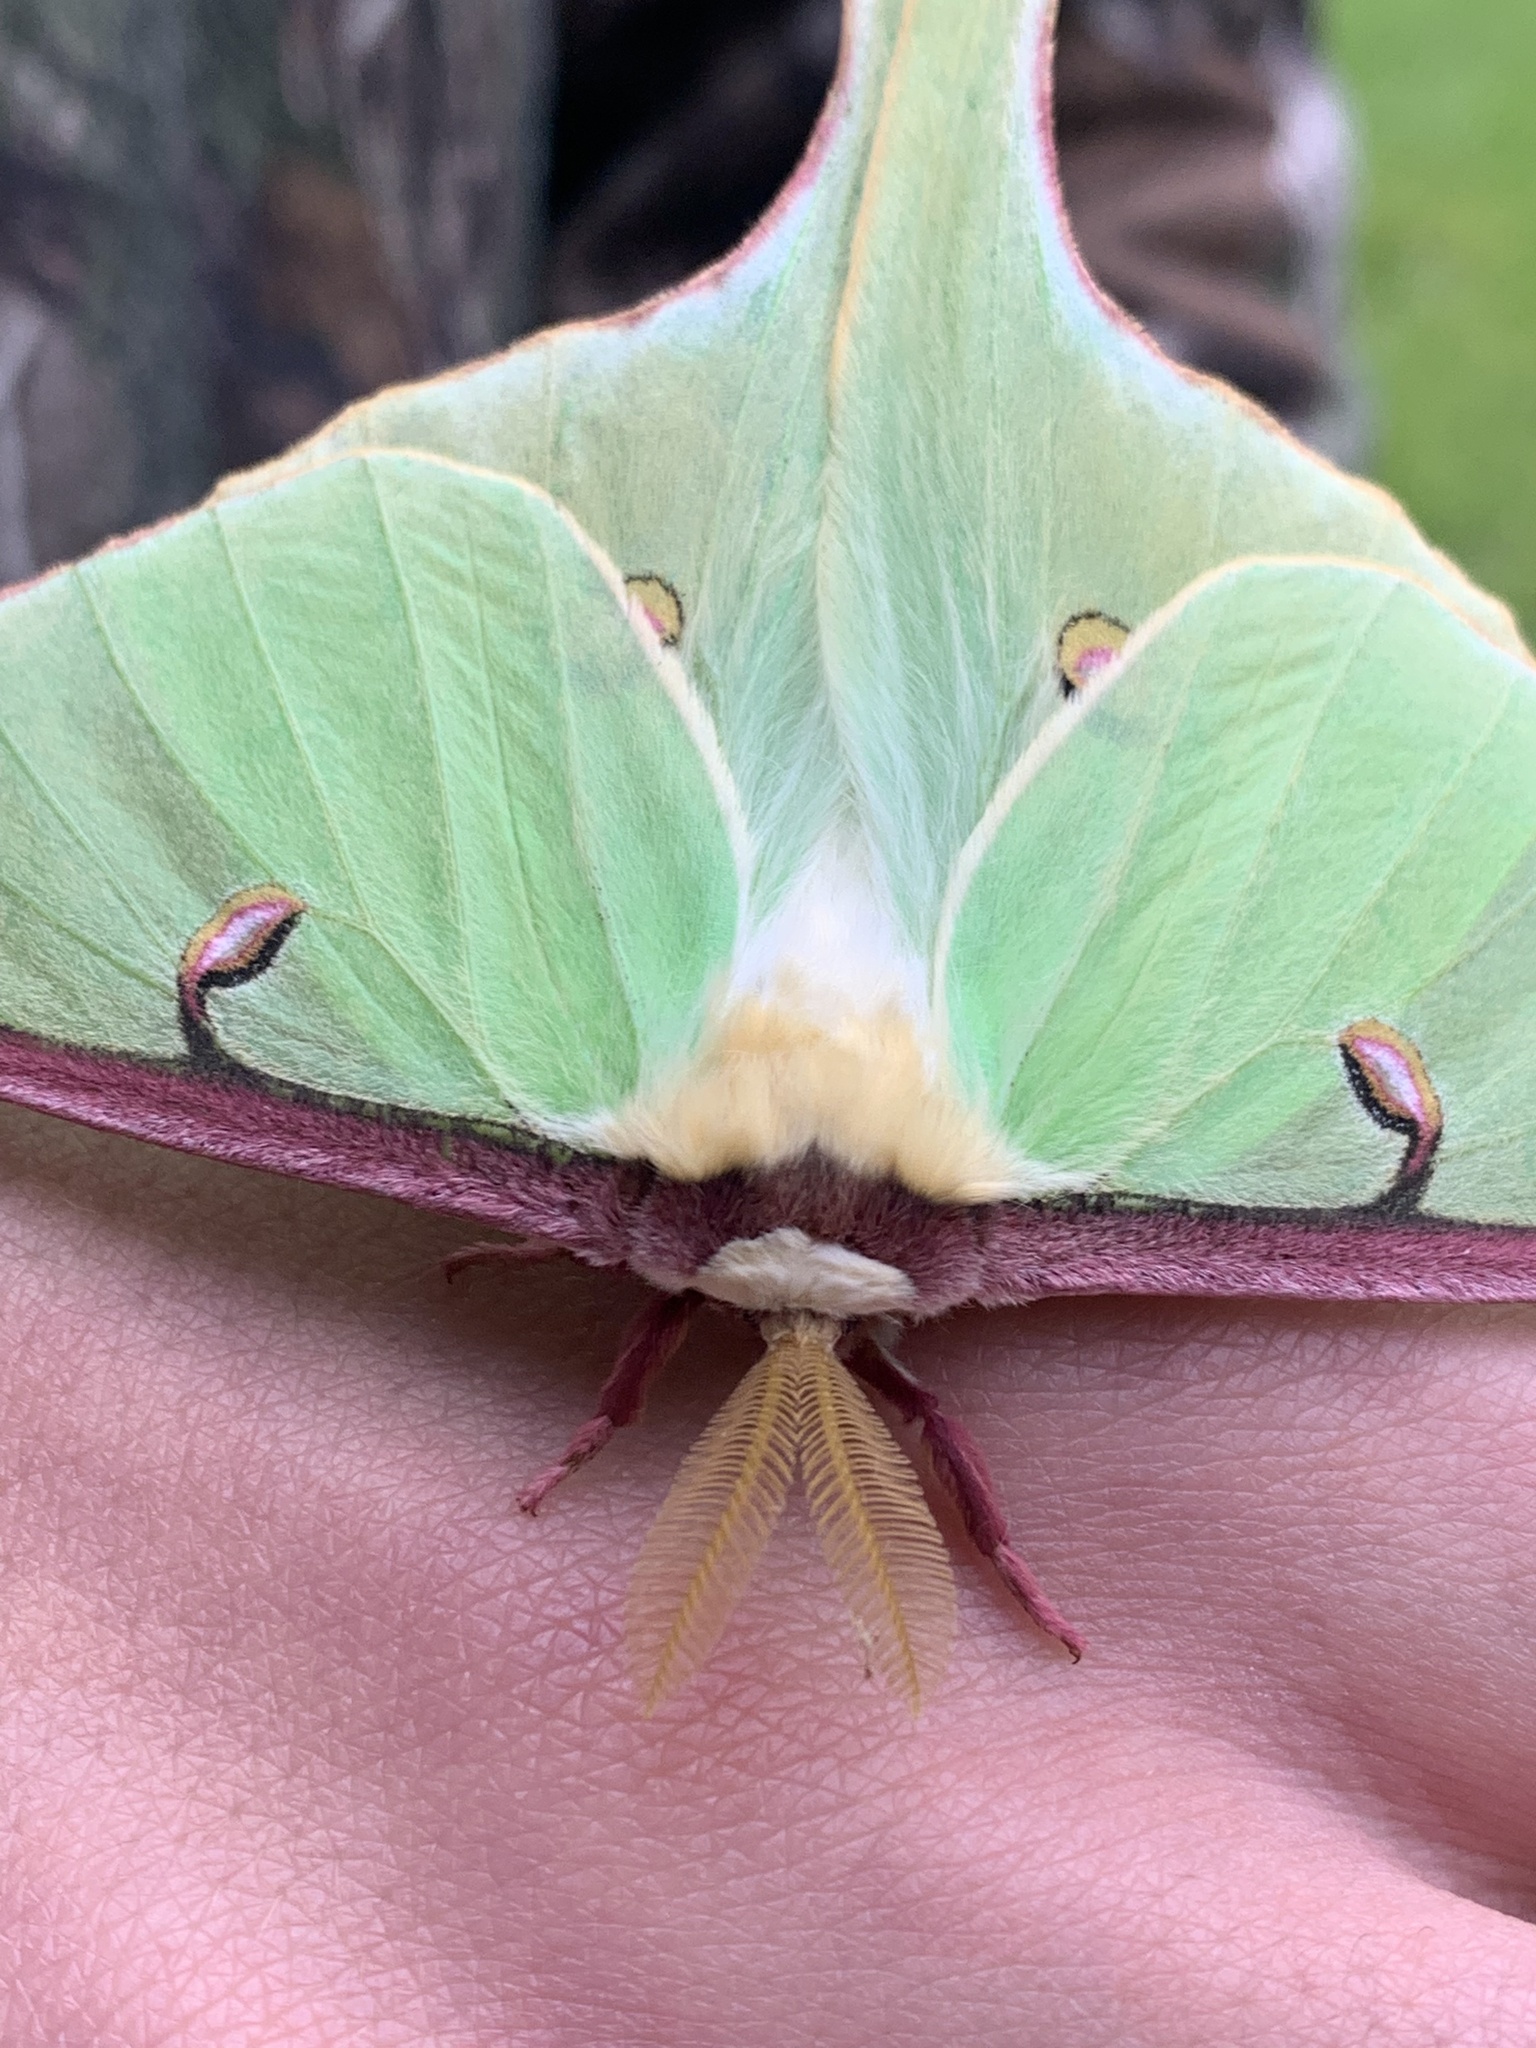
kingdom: Animalia
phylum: Arthropoda
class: Insecta
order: Lepidoptera
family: Saturniidae
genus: Actias
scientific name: Actias luna
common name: Luna moth
